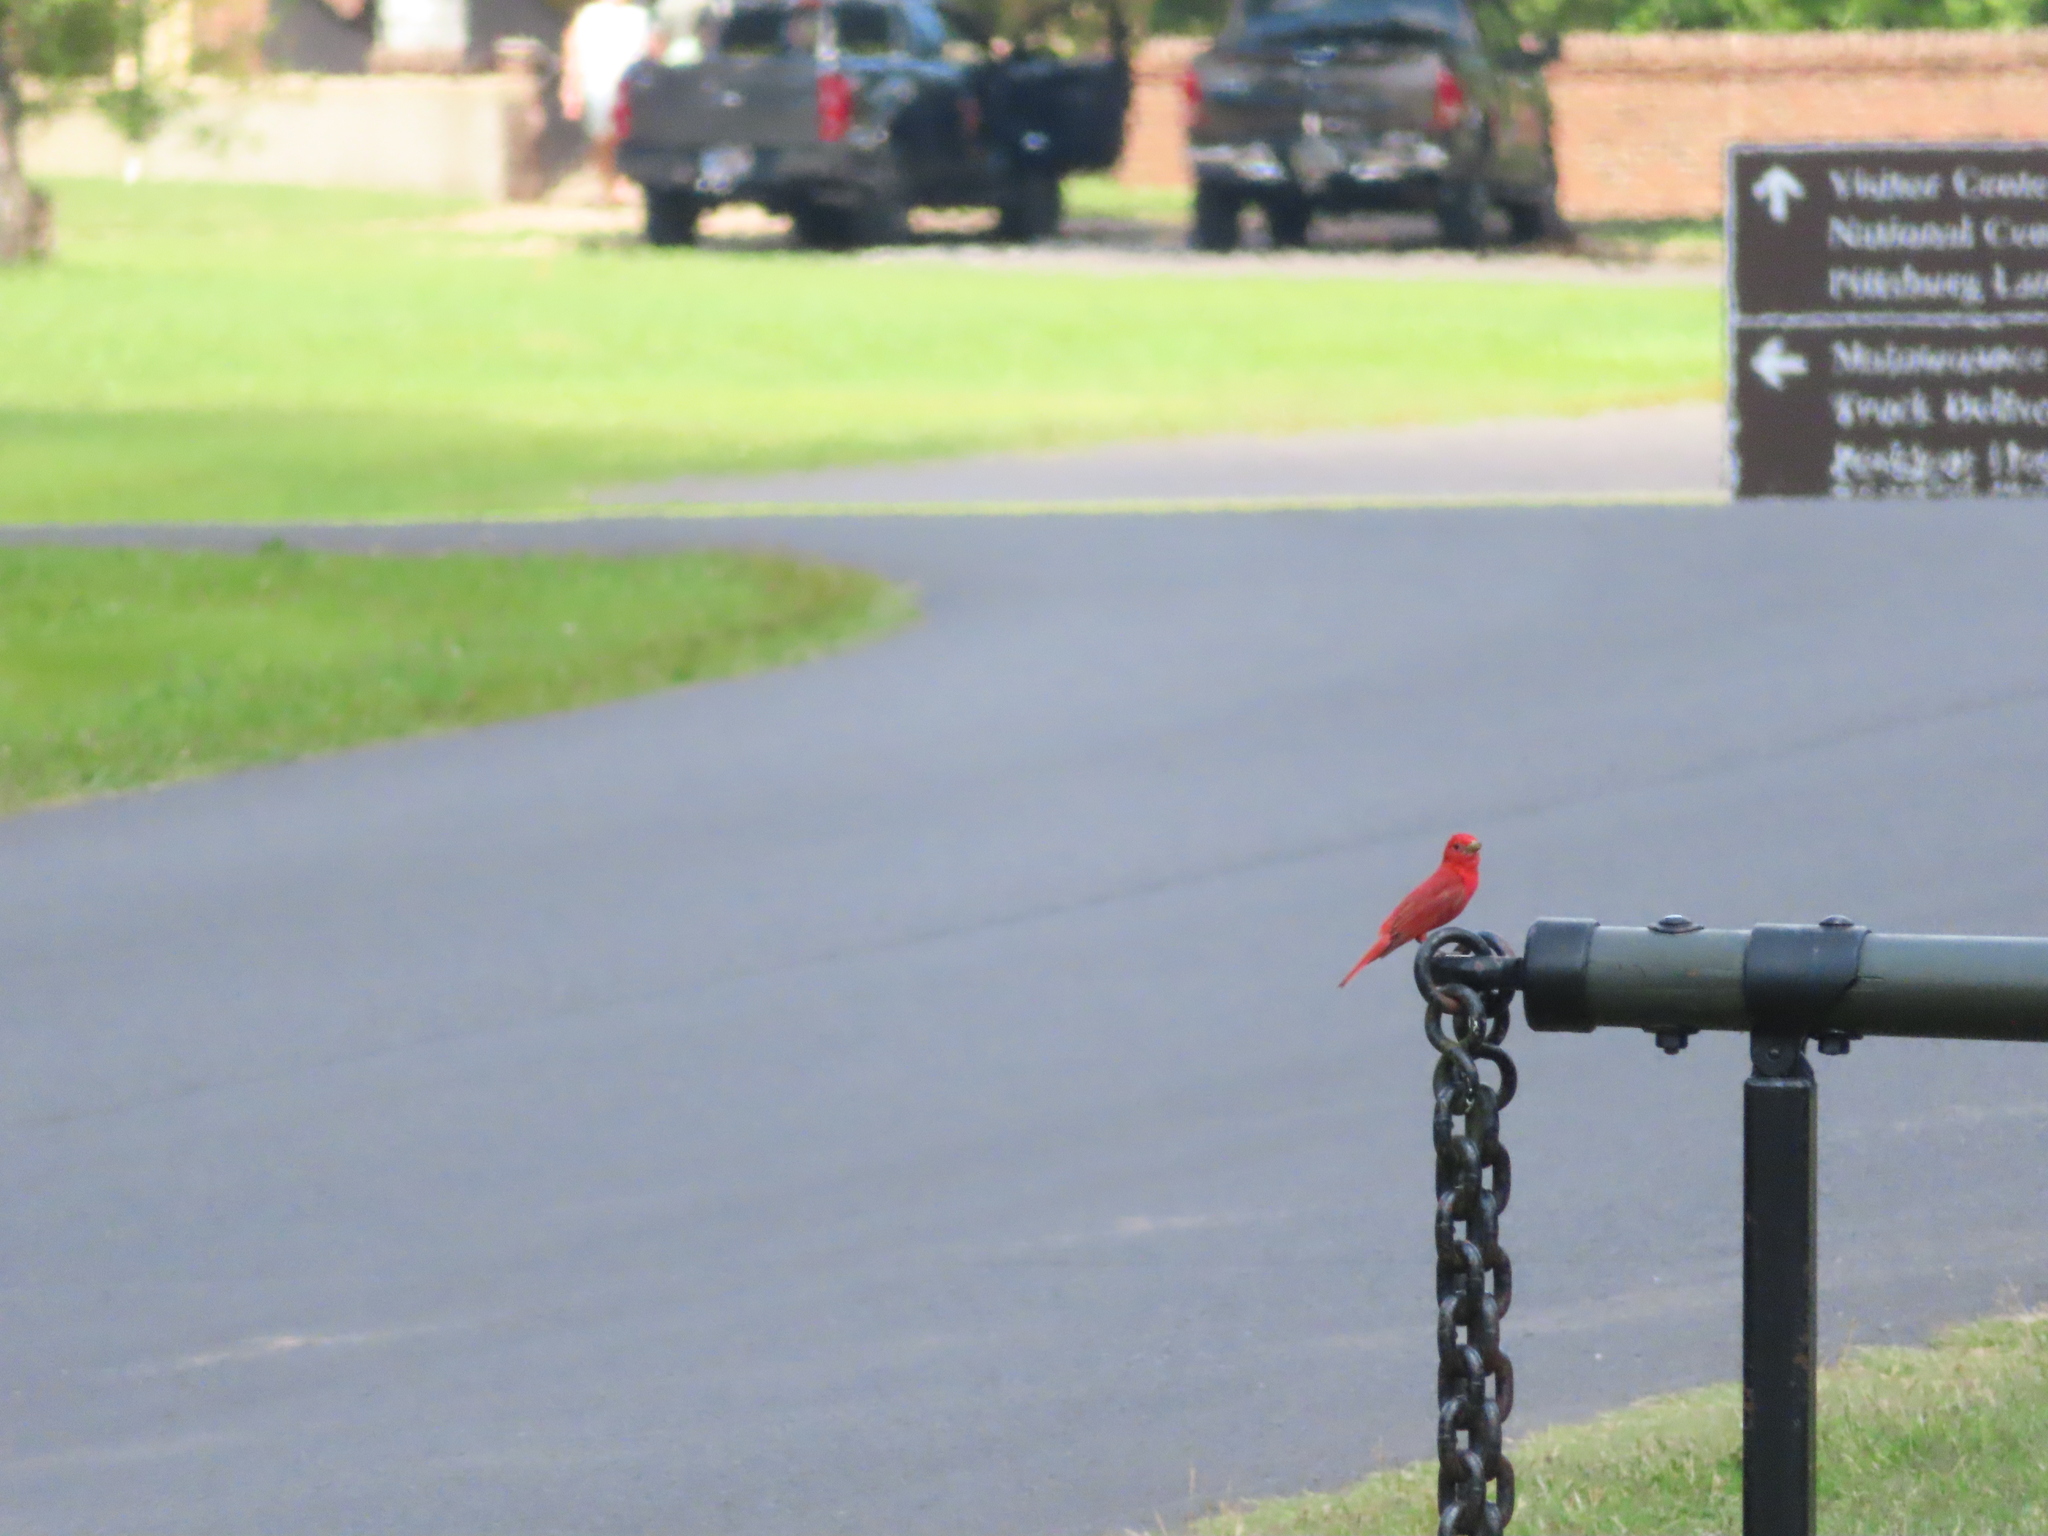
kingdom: Animalia
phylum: Chordata
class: Aves
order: Passeriformes
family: Cardinalidae
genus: Piranga
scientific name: Piranga rubra
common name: Summer tanager
